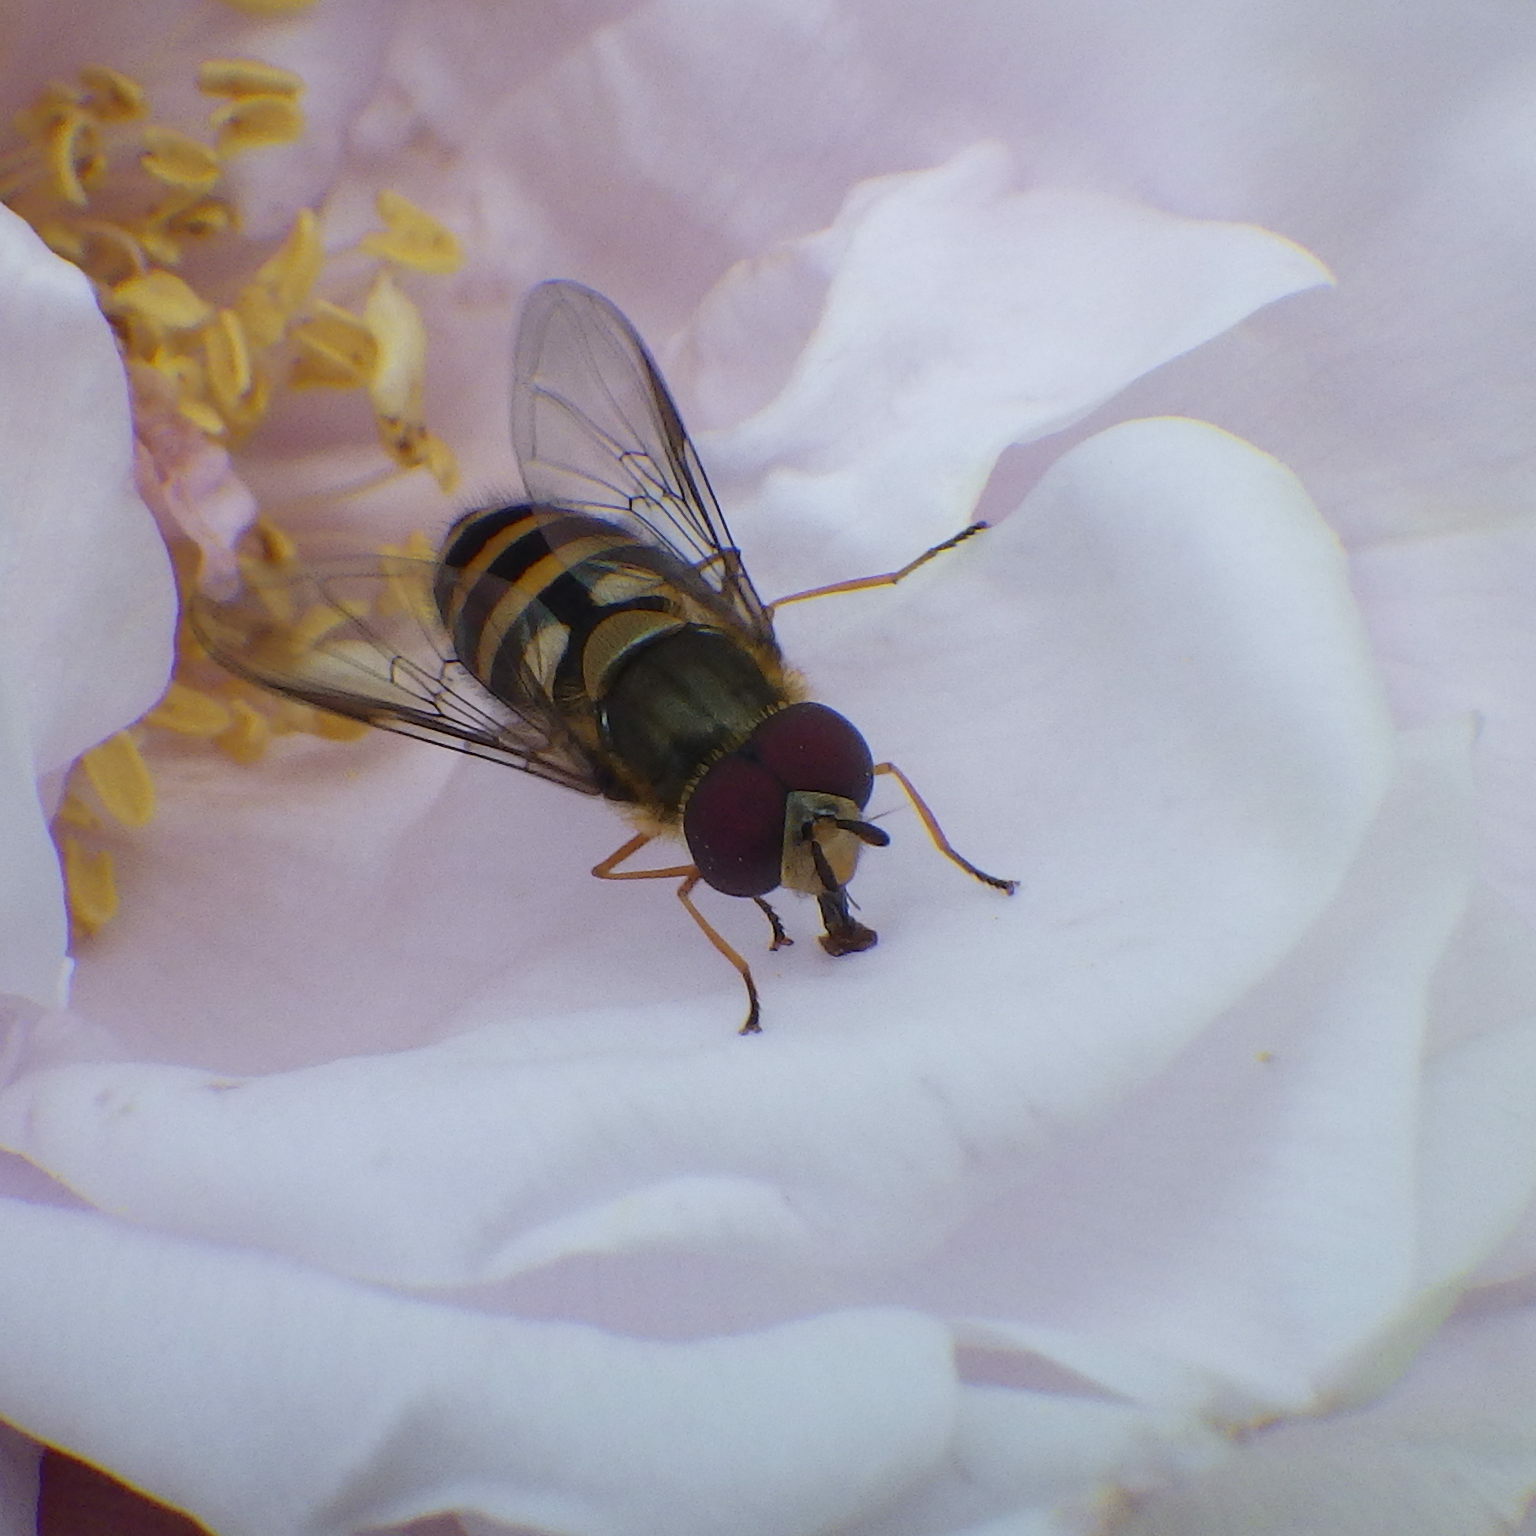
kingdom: Animalia
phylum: Arthropoda
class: Insecta
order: Diptera
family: Syrphidae
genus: Syrphus
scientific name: Syrphus
